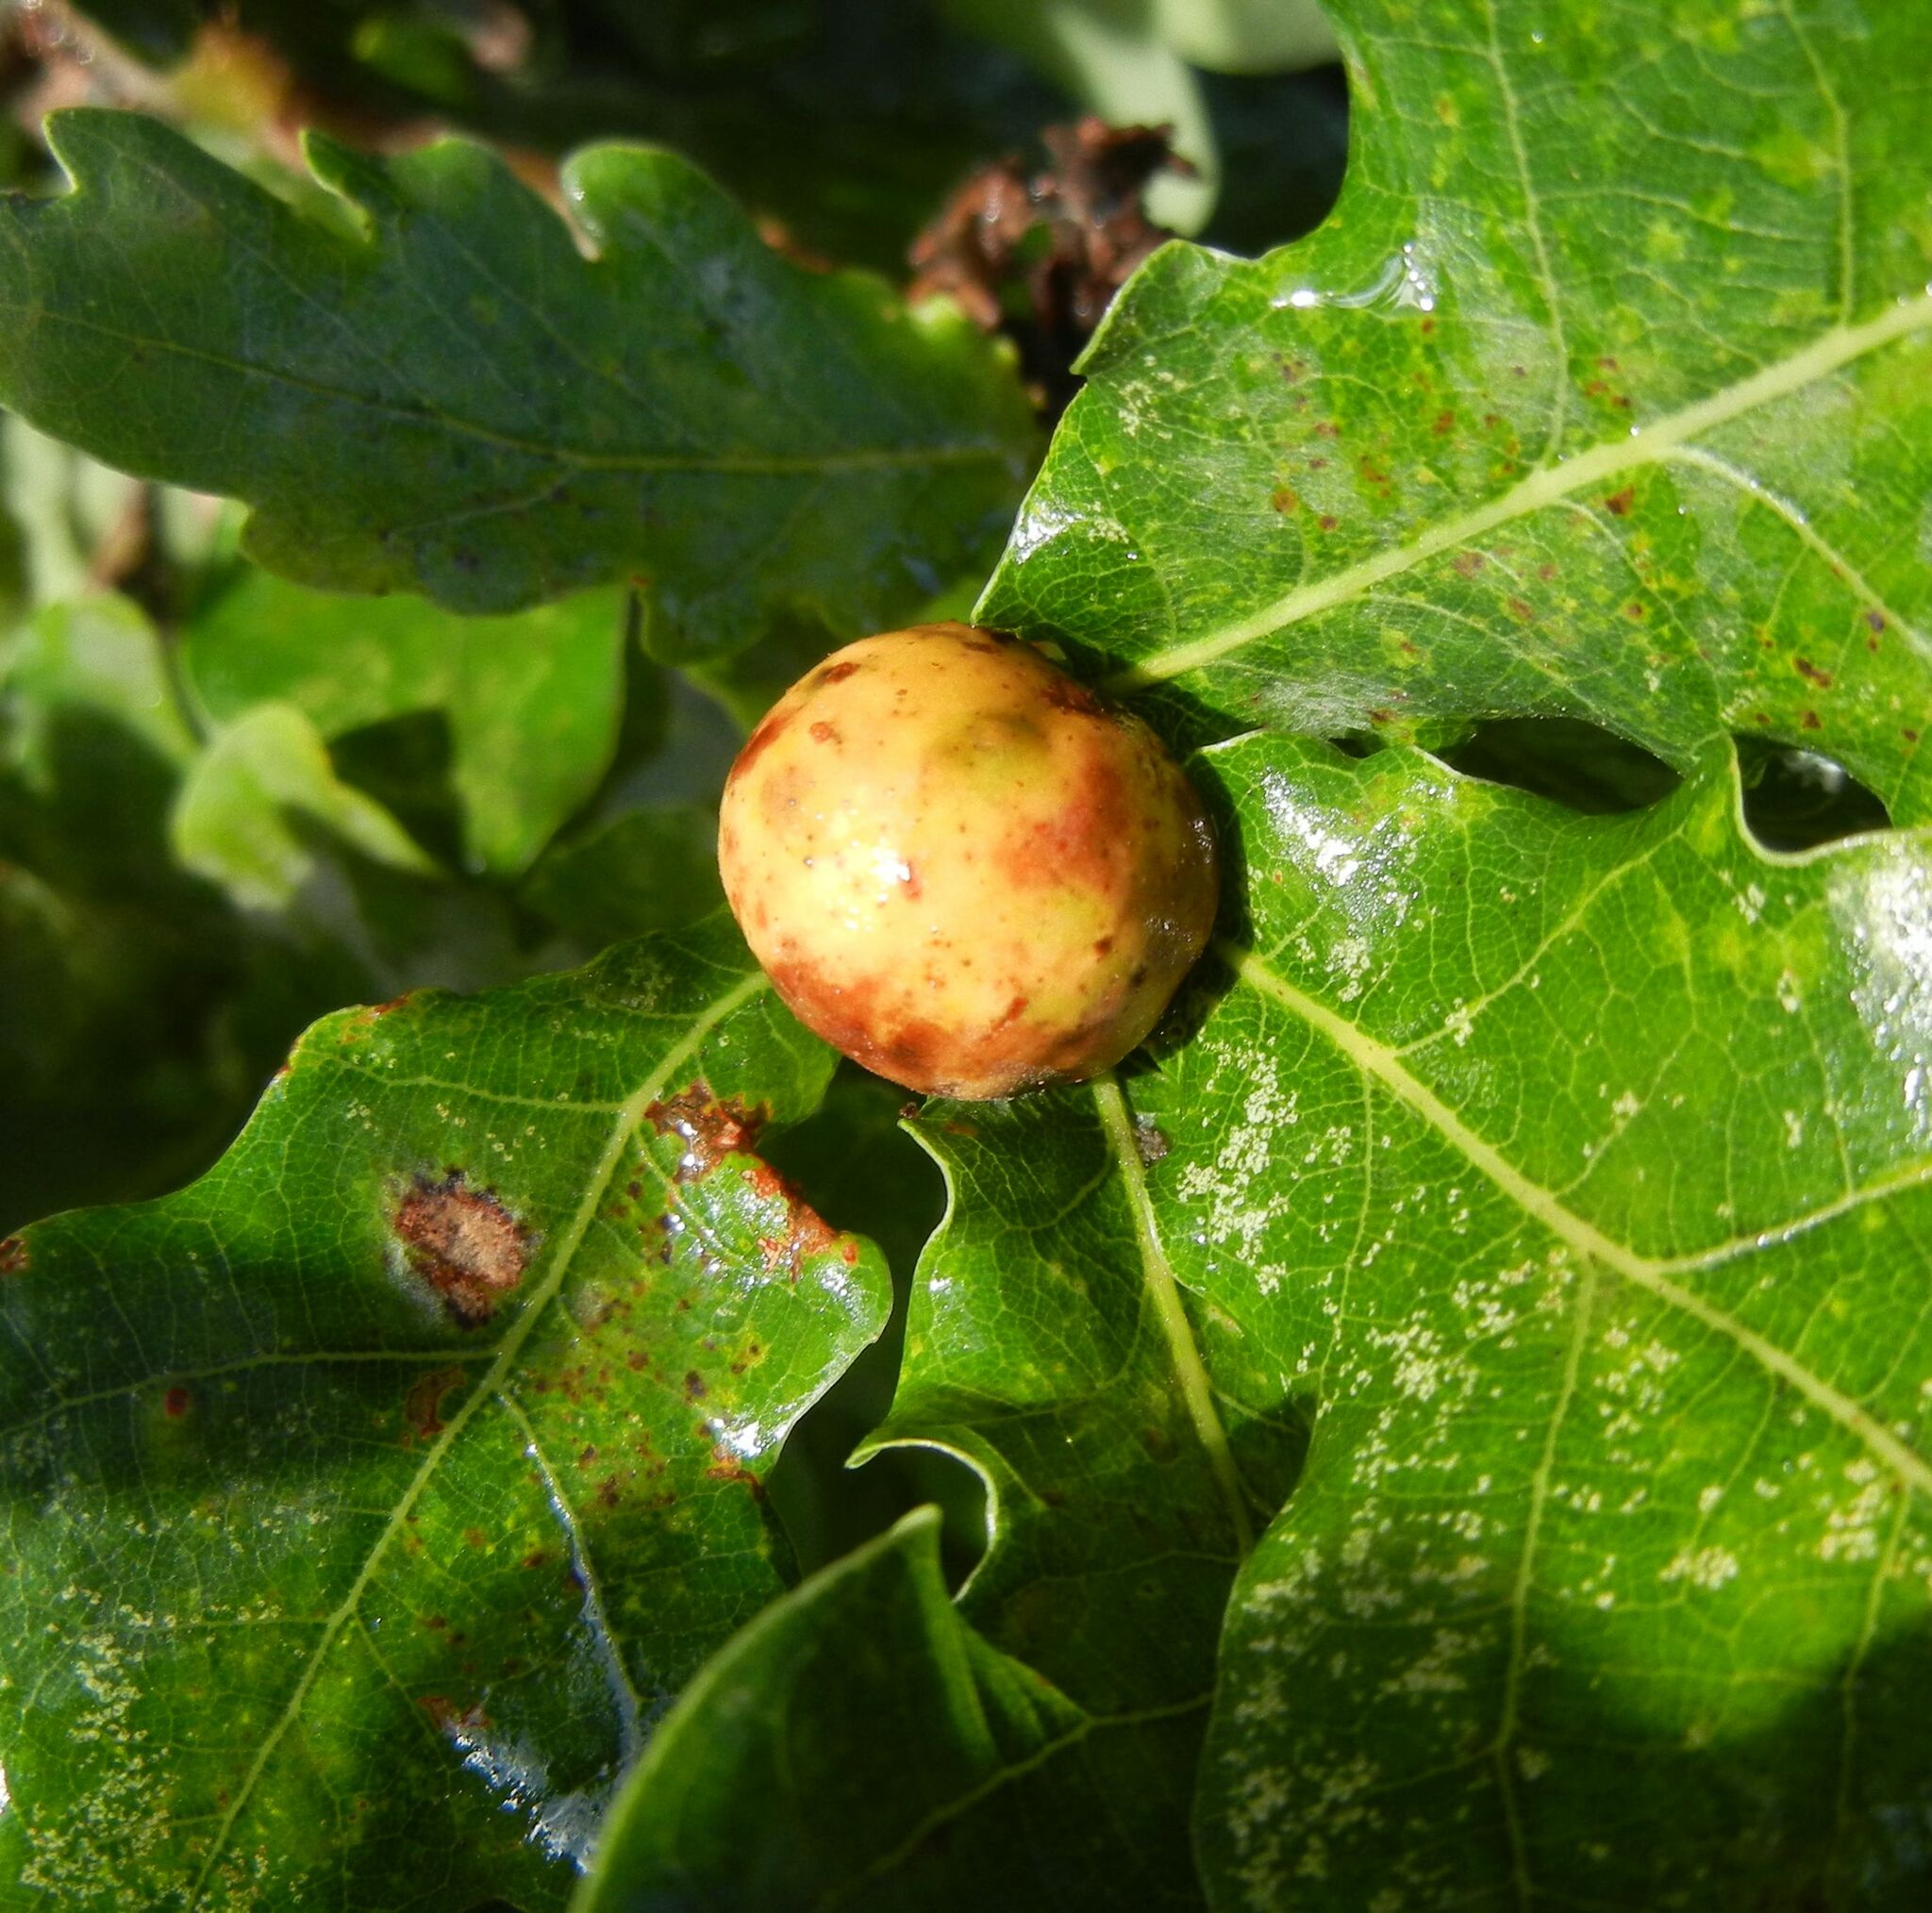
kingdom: Animalia
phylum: Arthropoda
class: Insecta
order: Hymenoptera
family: Cynipidae
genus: Biorhiza
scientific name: Biorhiza pallida
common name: Oak apple
